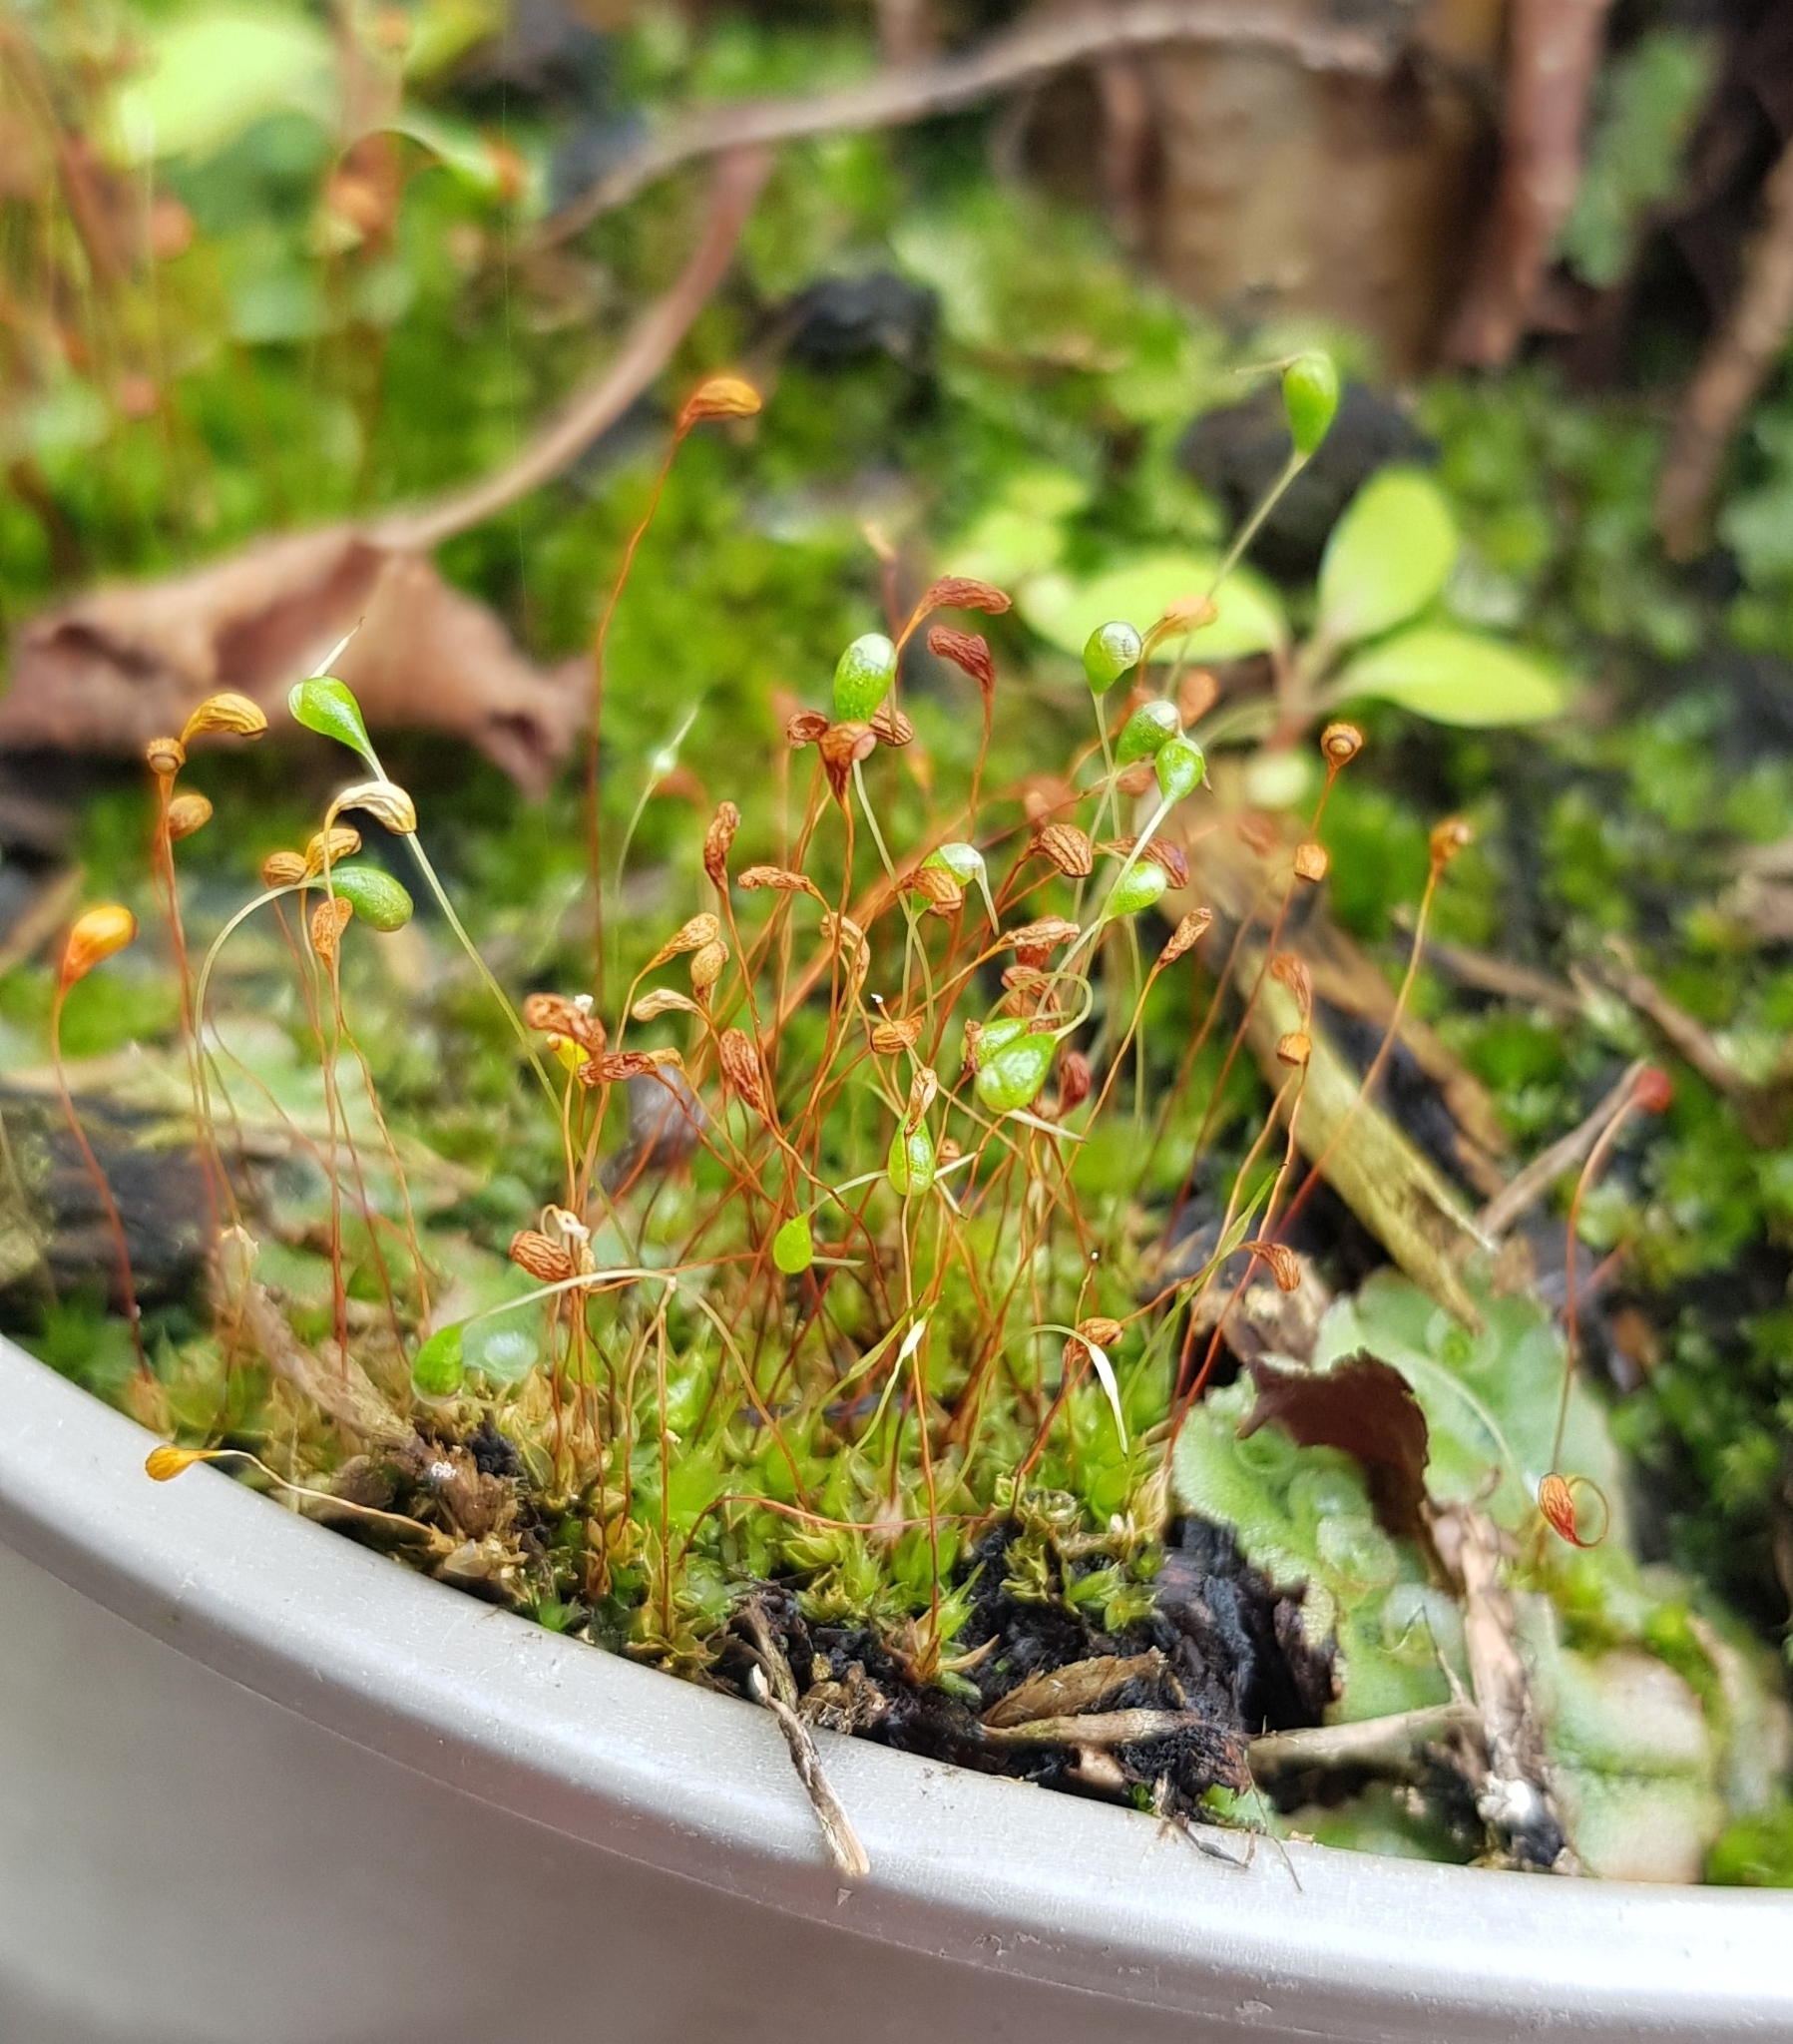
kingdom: Plantae
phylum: Bryophyta
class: Bryopsida
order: Funariales
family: Funariaceae
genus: Funaria
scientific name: Funaria hygrometrica
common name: Common cord moss
